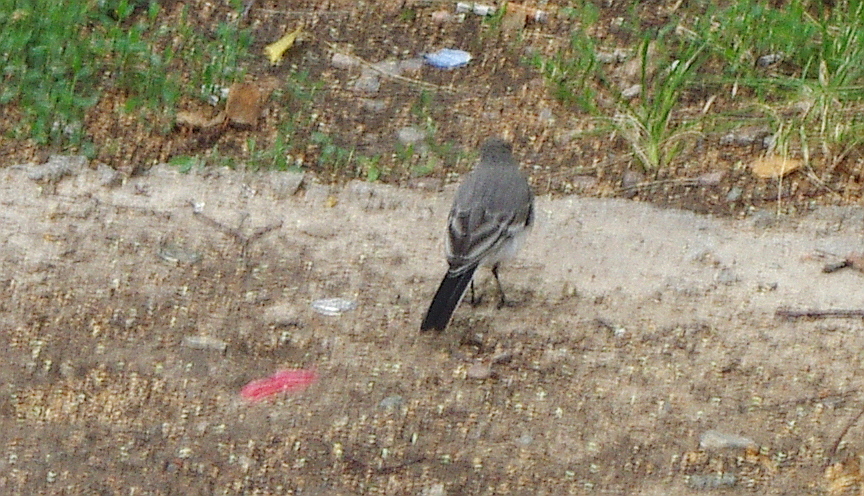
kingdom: Animalia
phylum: Chordata
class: Aves
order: Passeriformes
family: Motacillidae
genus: Motacilla
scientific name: Motacilla alba
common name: White wagtail
